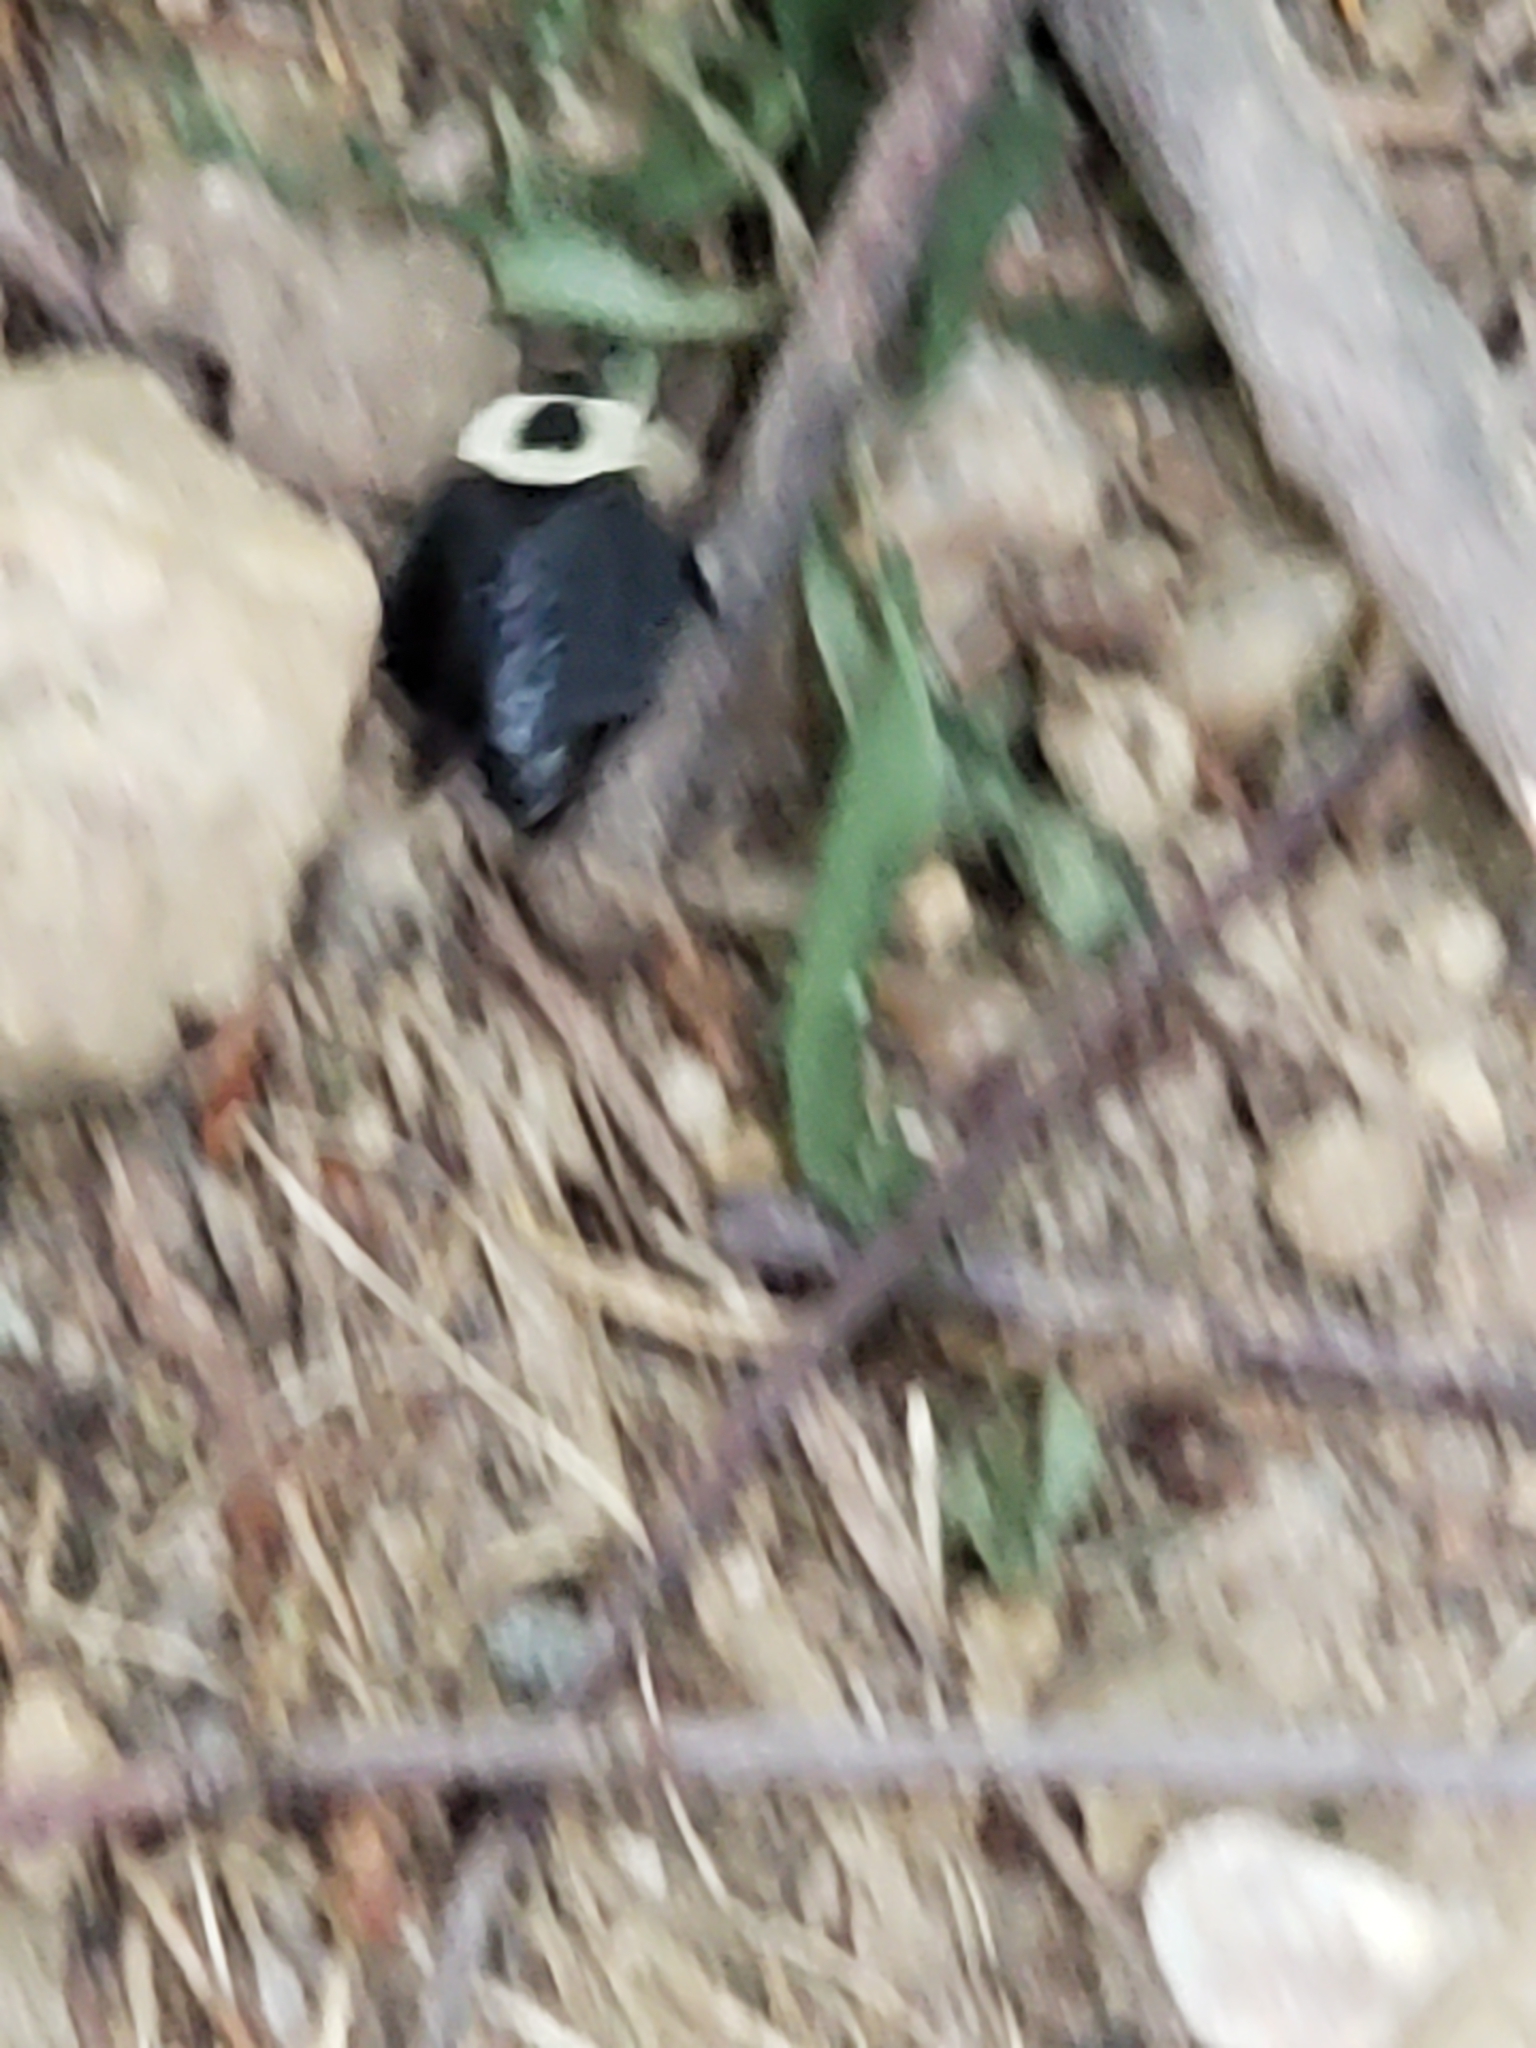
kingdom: Animalia
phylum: Arthropoda
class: Insecta
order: Coleoptera
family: Staphylinidae
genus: Necrophila
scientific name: Necrophila americana
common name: American carrion beetle
